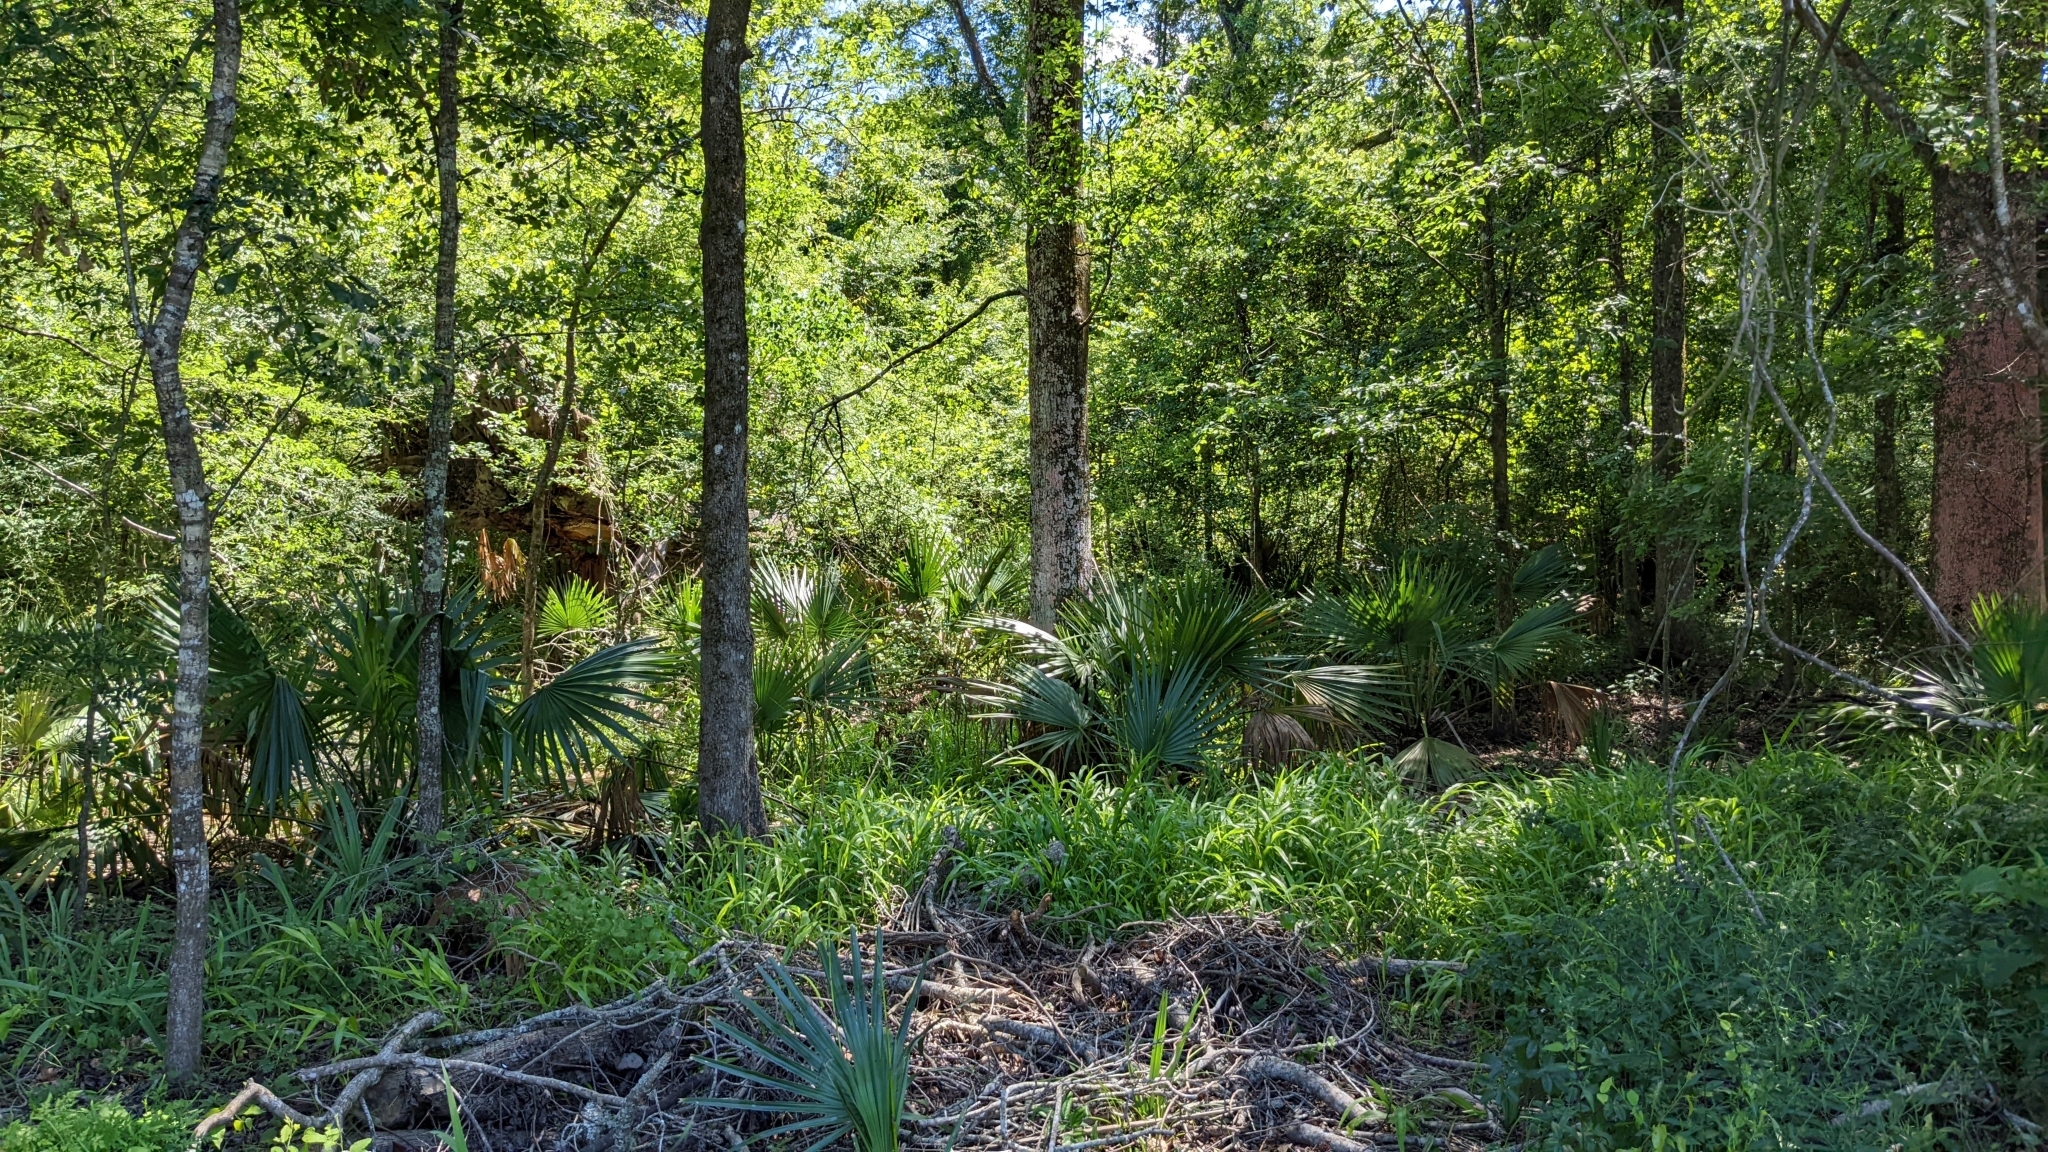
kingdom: Plantae
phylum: Tracheophyta
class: Liliopsida
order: Arecales
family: Arecaceae
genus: Sabal
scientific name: Sabal minor
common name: Dwarf palmetto
